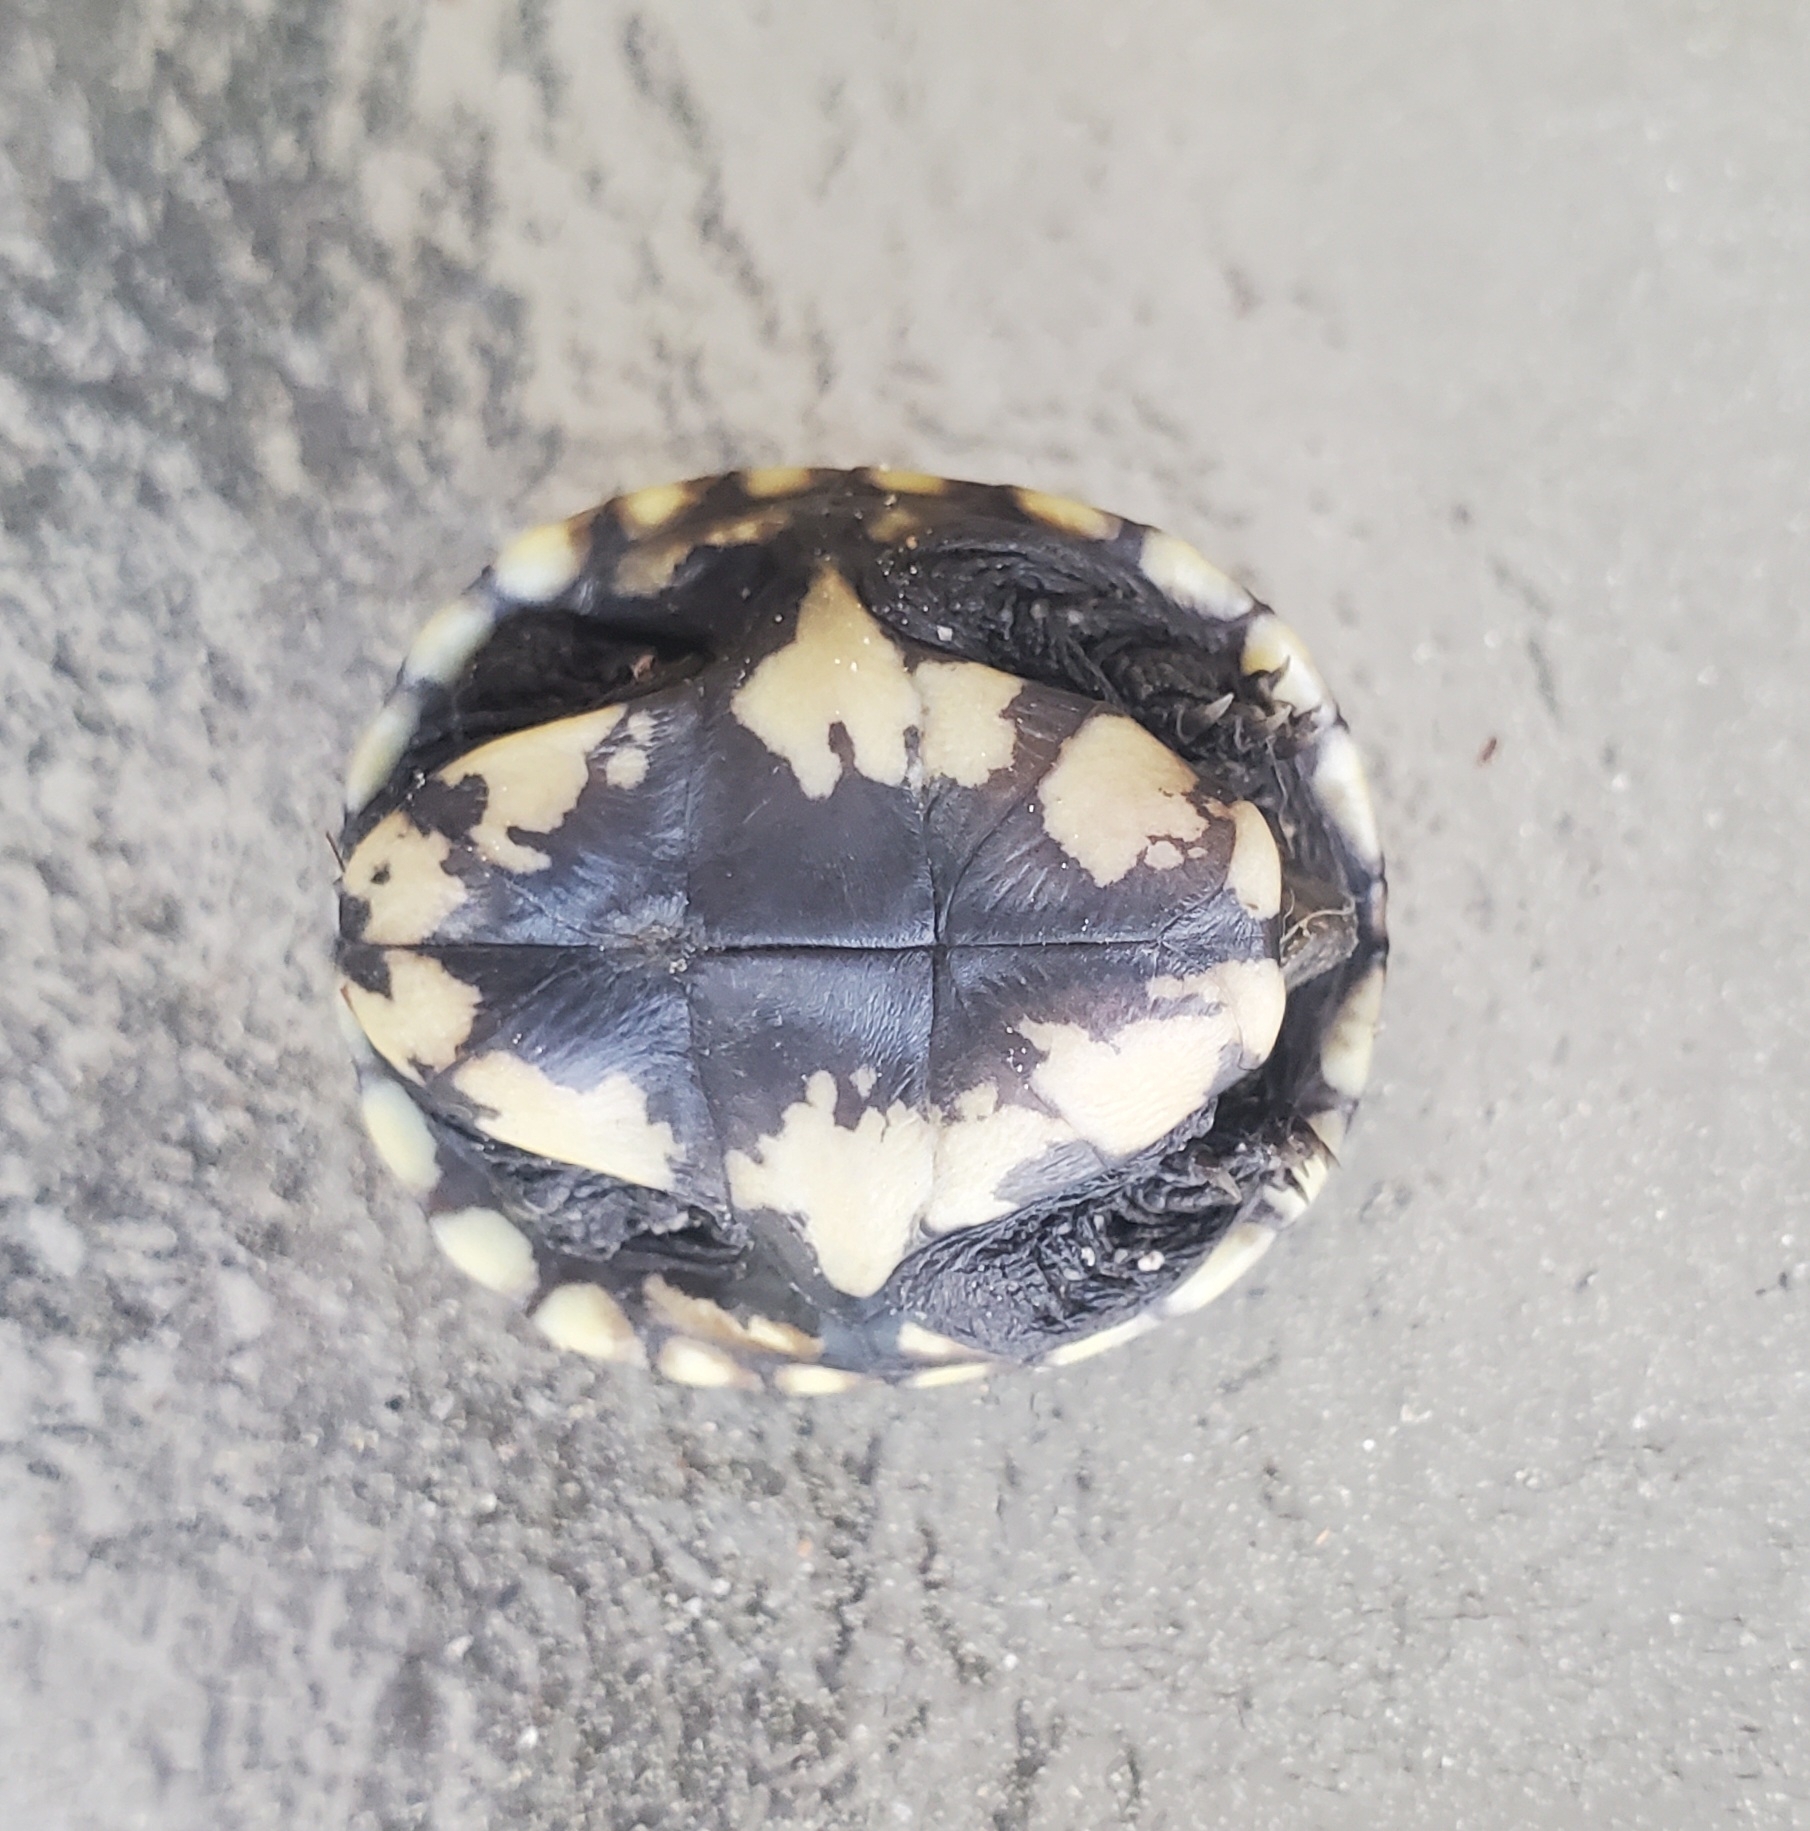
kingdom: Animalia
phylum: Chordata
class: Testudines
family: Kinosternidae
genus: Kinosternon
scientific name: Kinosternon baurii
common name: Striped mud turtle
